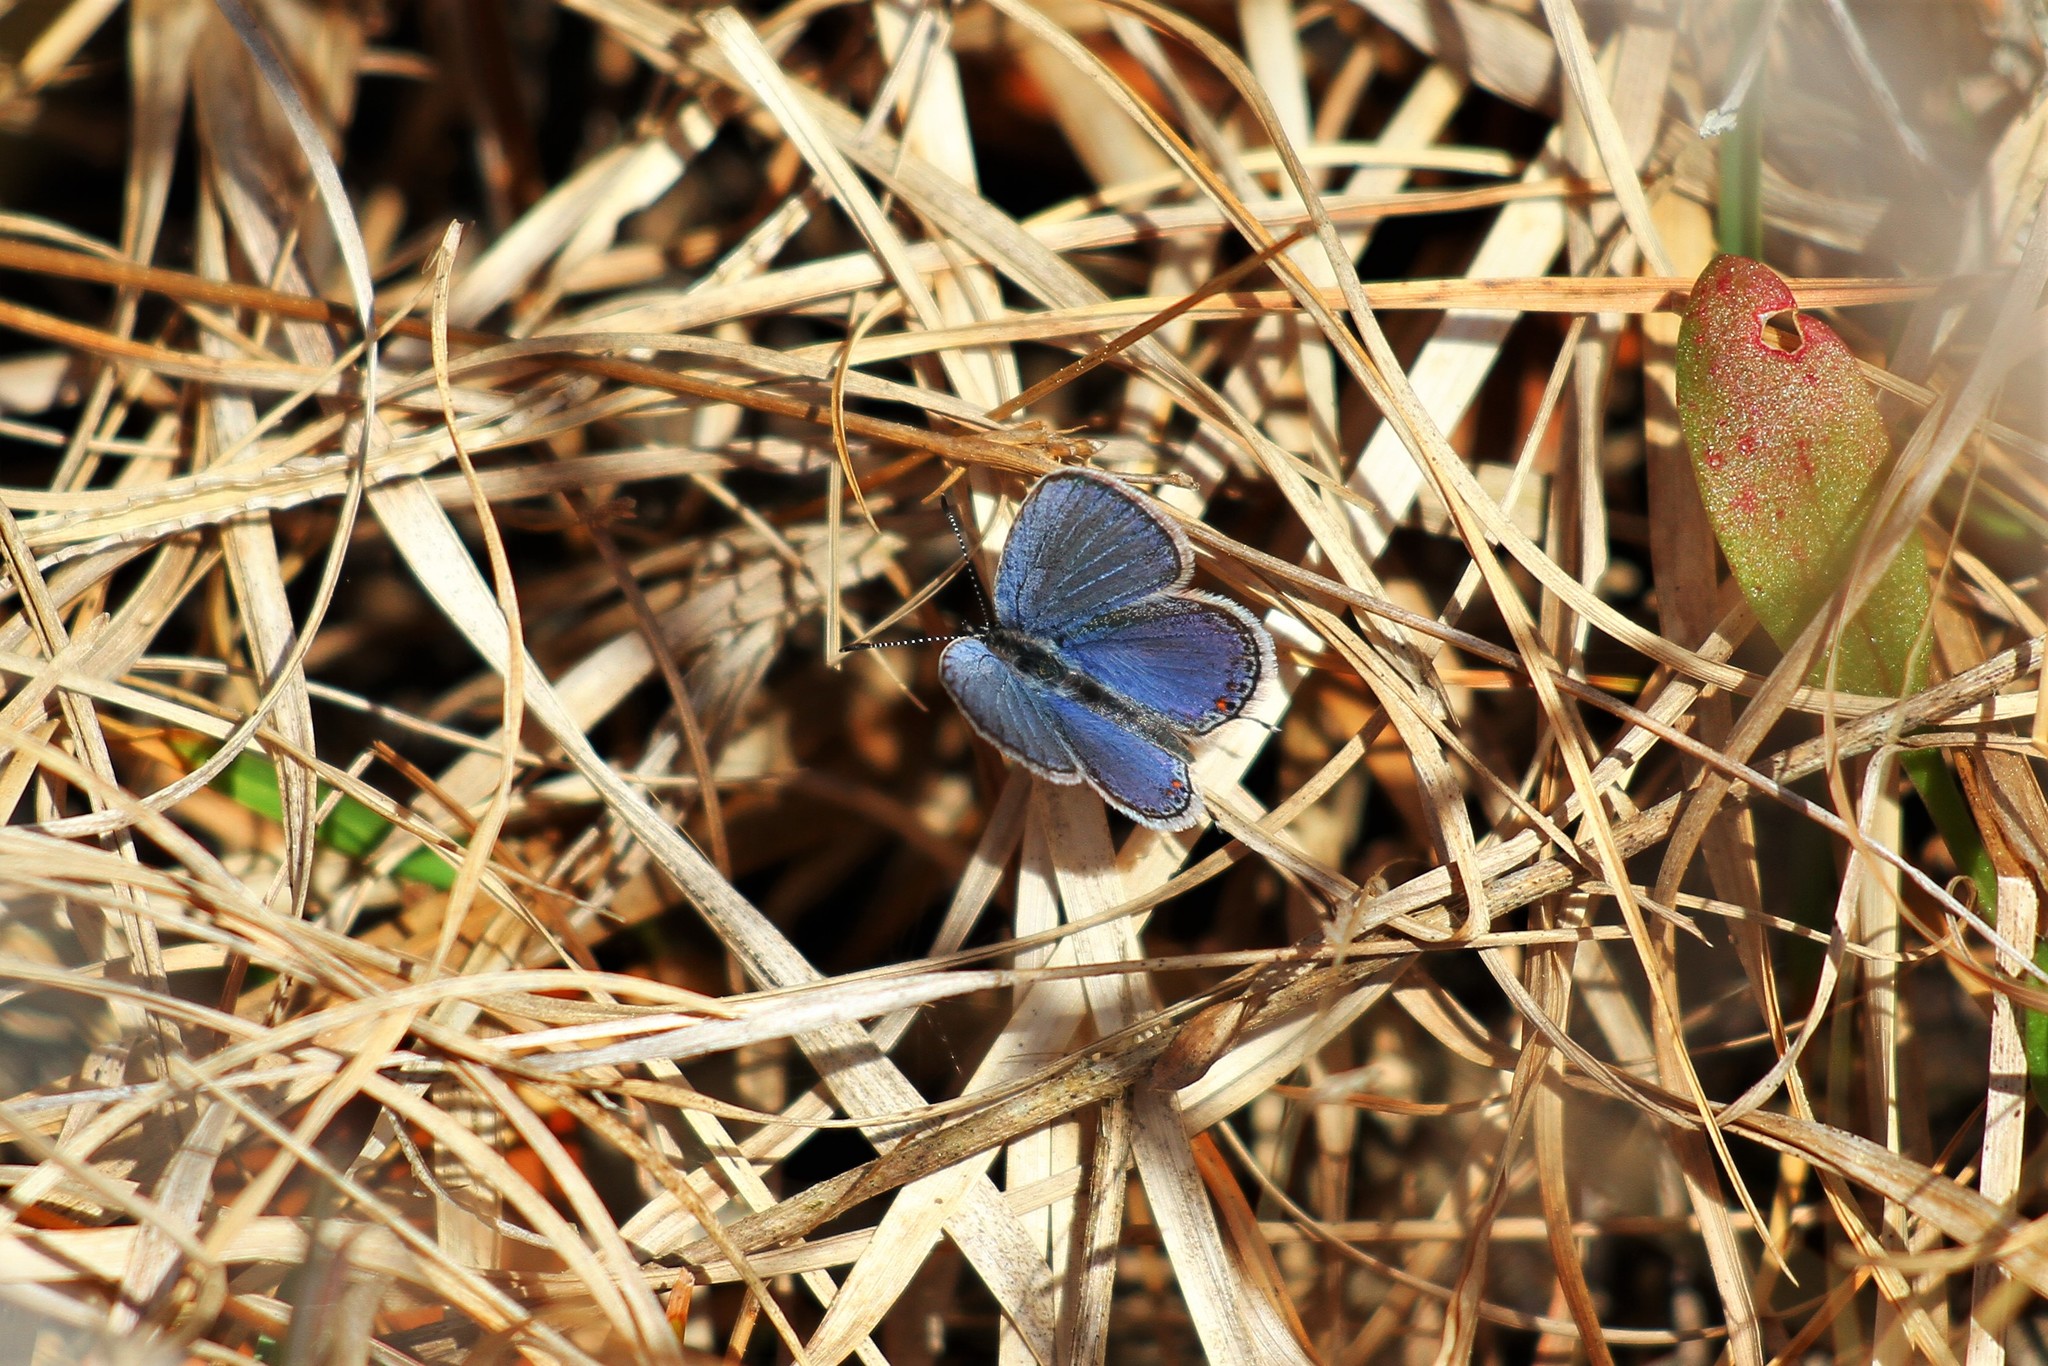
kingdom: Animalia
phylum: Arthropoda
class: Insecta
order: Lepidoptera
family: Lycaenidae
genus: Elkalyce
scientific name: Elkalyce comyntas
